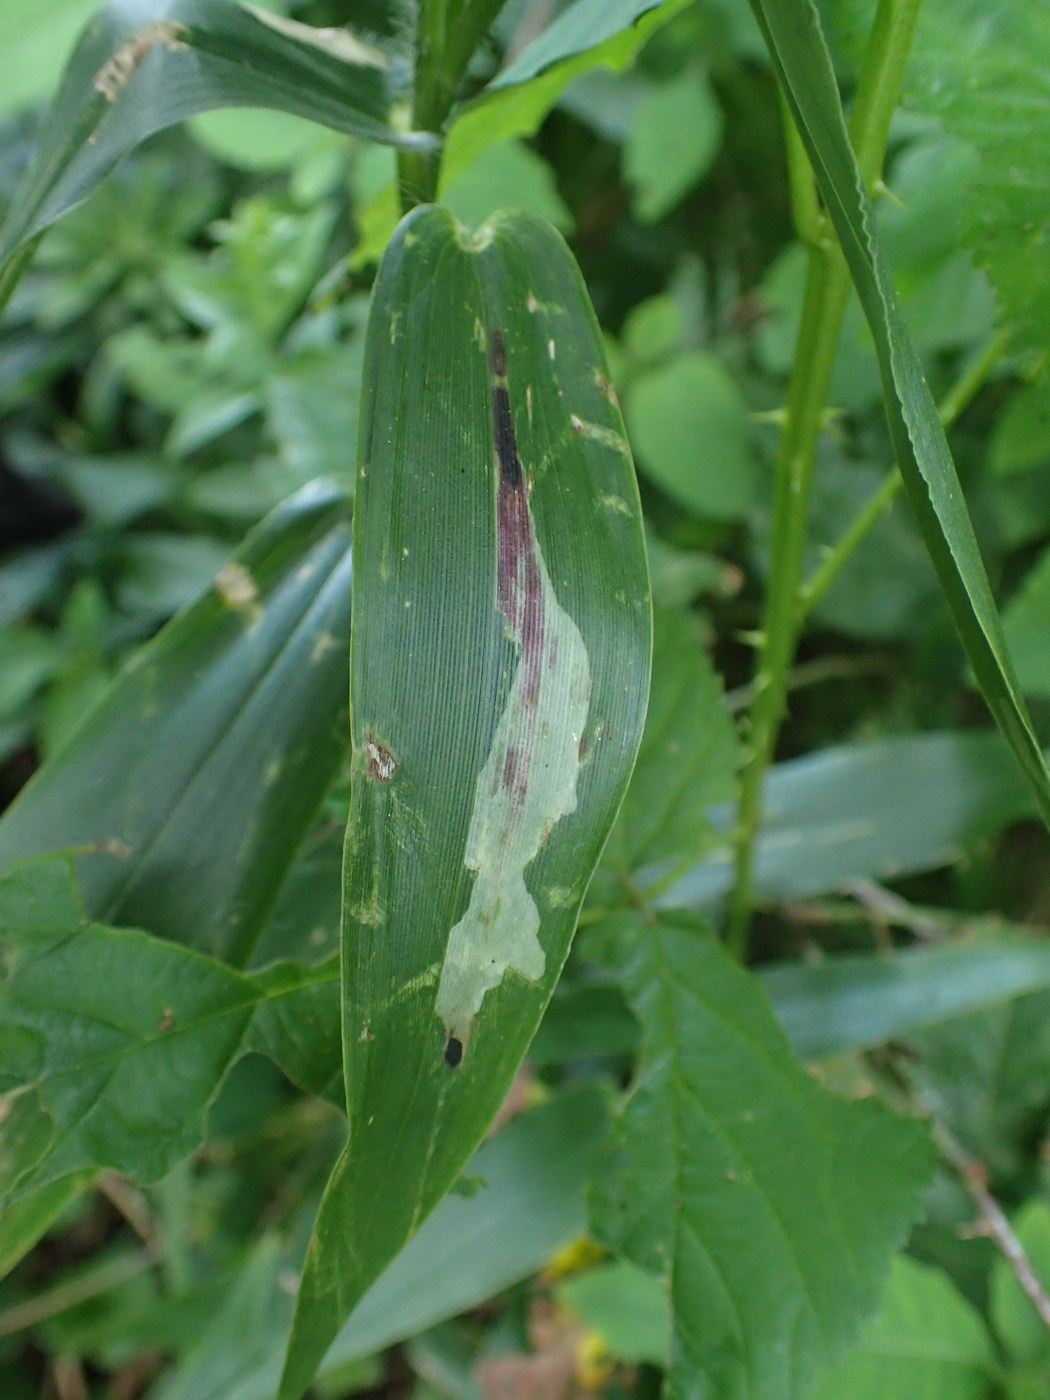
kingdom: Animalia
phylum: Arthropoda
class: Insecta
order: Diptera
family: Agromyzidae
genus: Cerodontha
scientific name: Cerodontha angulata
